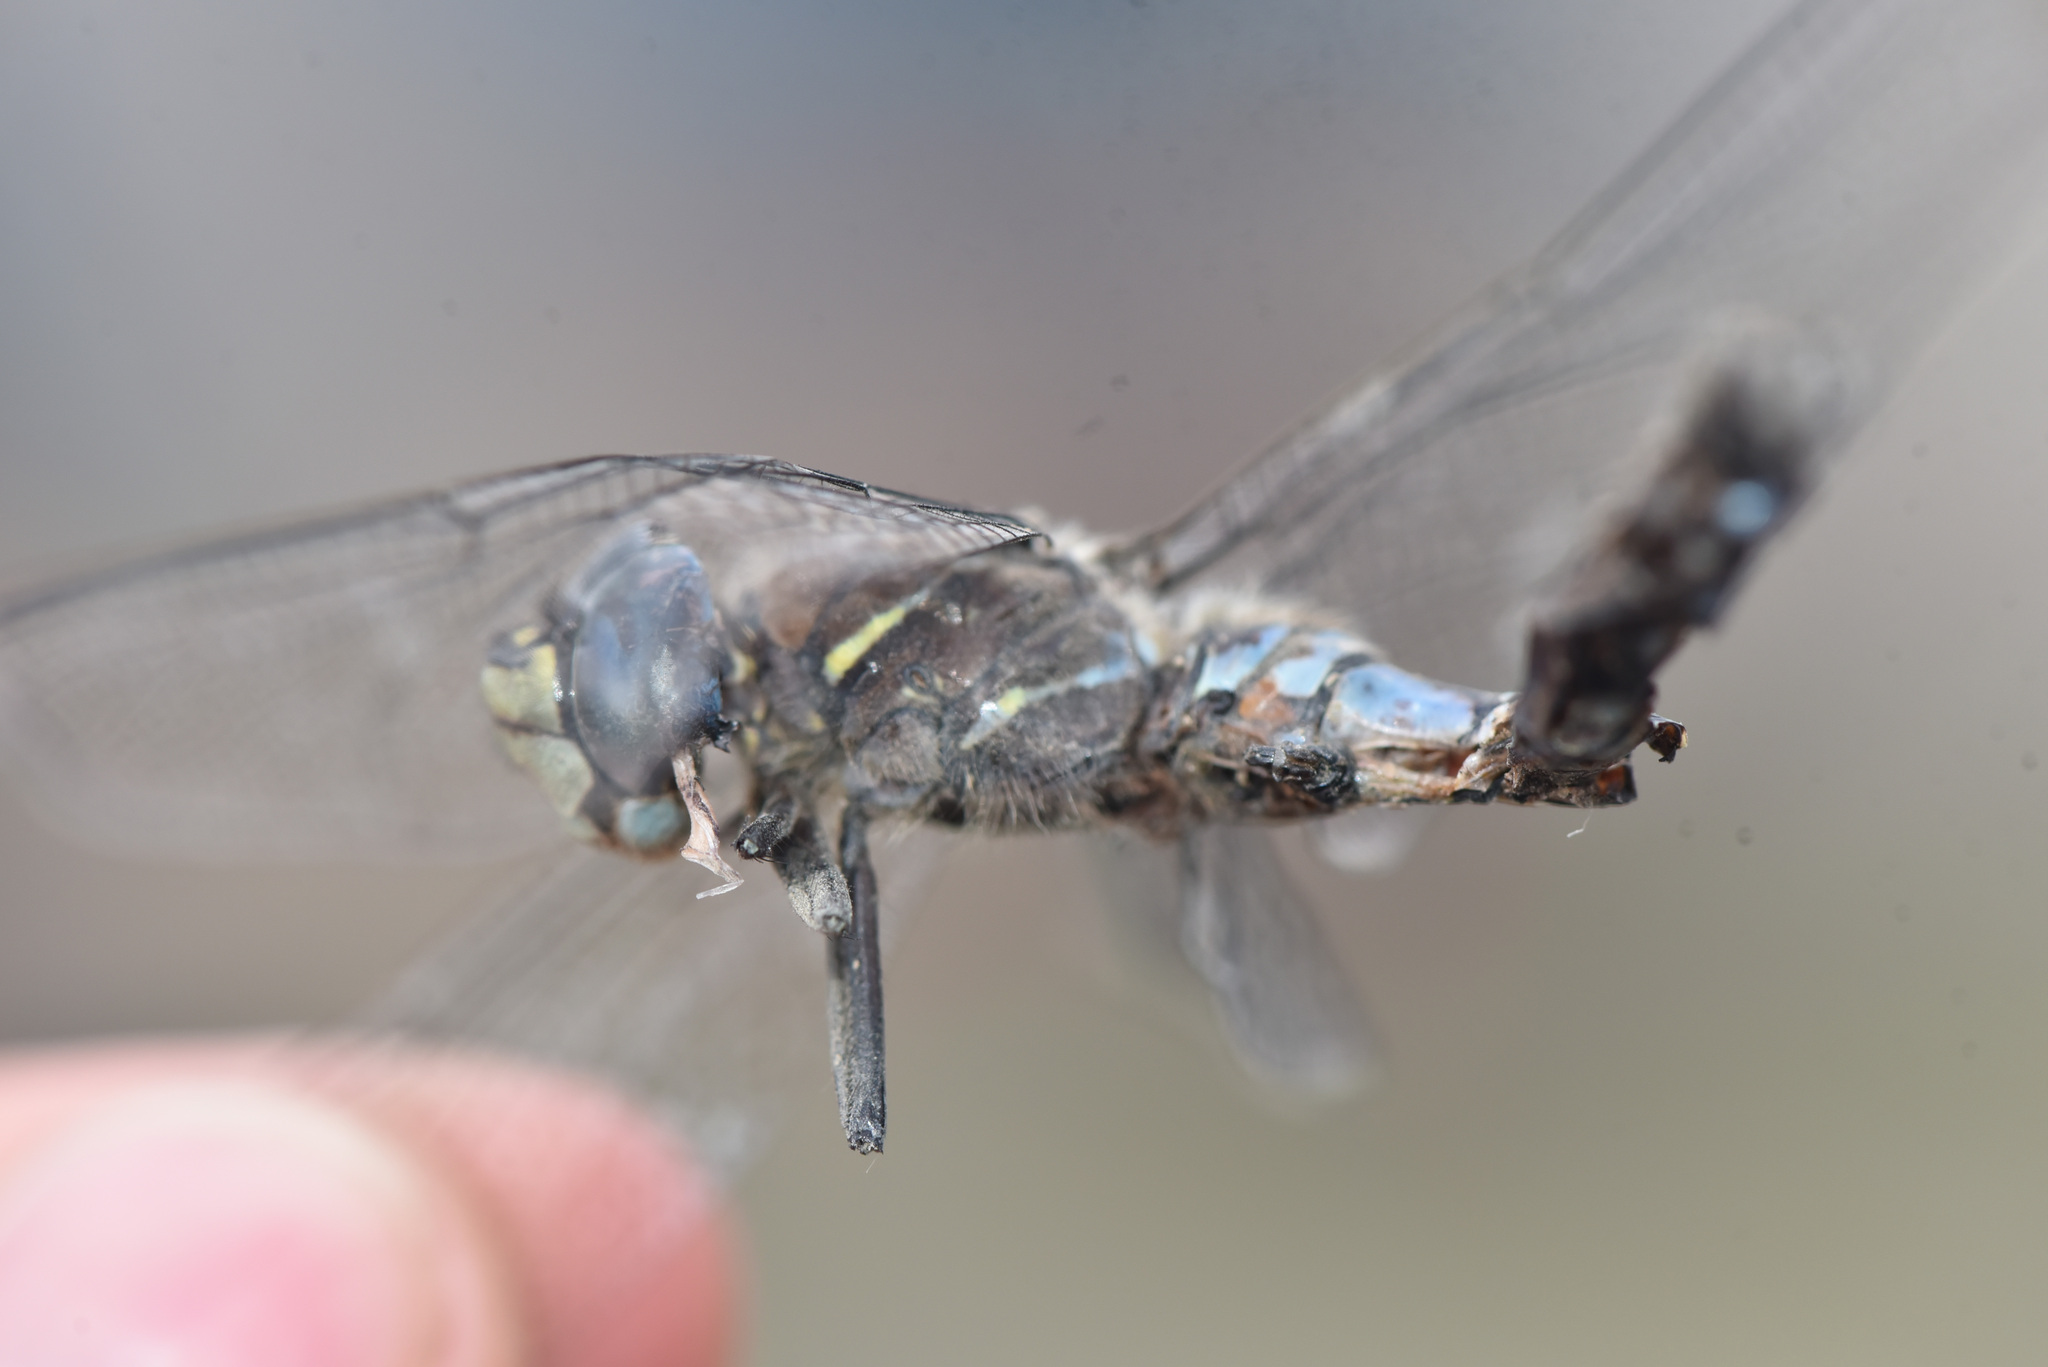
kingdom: Animalia
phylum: Arthropoda
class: Insecta
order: Odonata
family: Aeshnidae
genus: Aeshna
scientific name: Aeshna interrupta
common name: Variable darner
